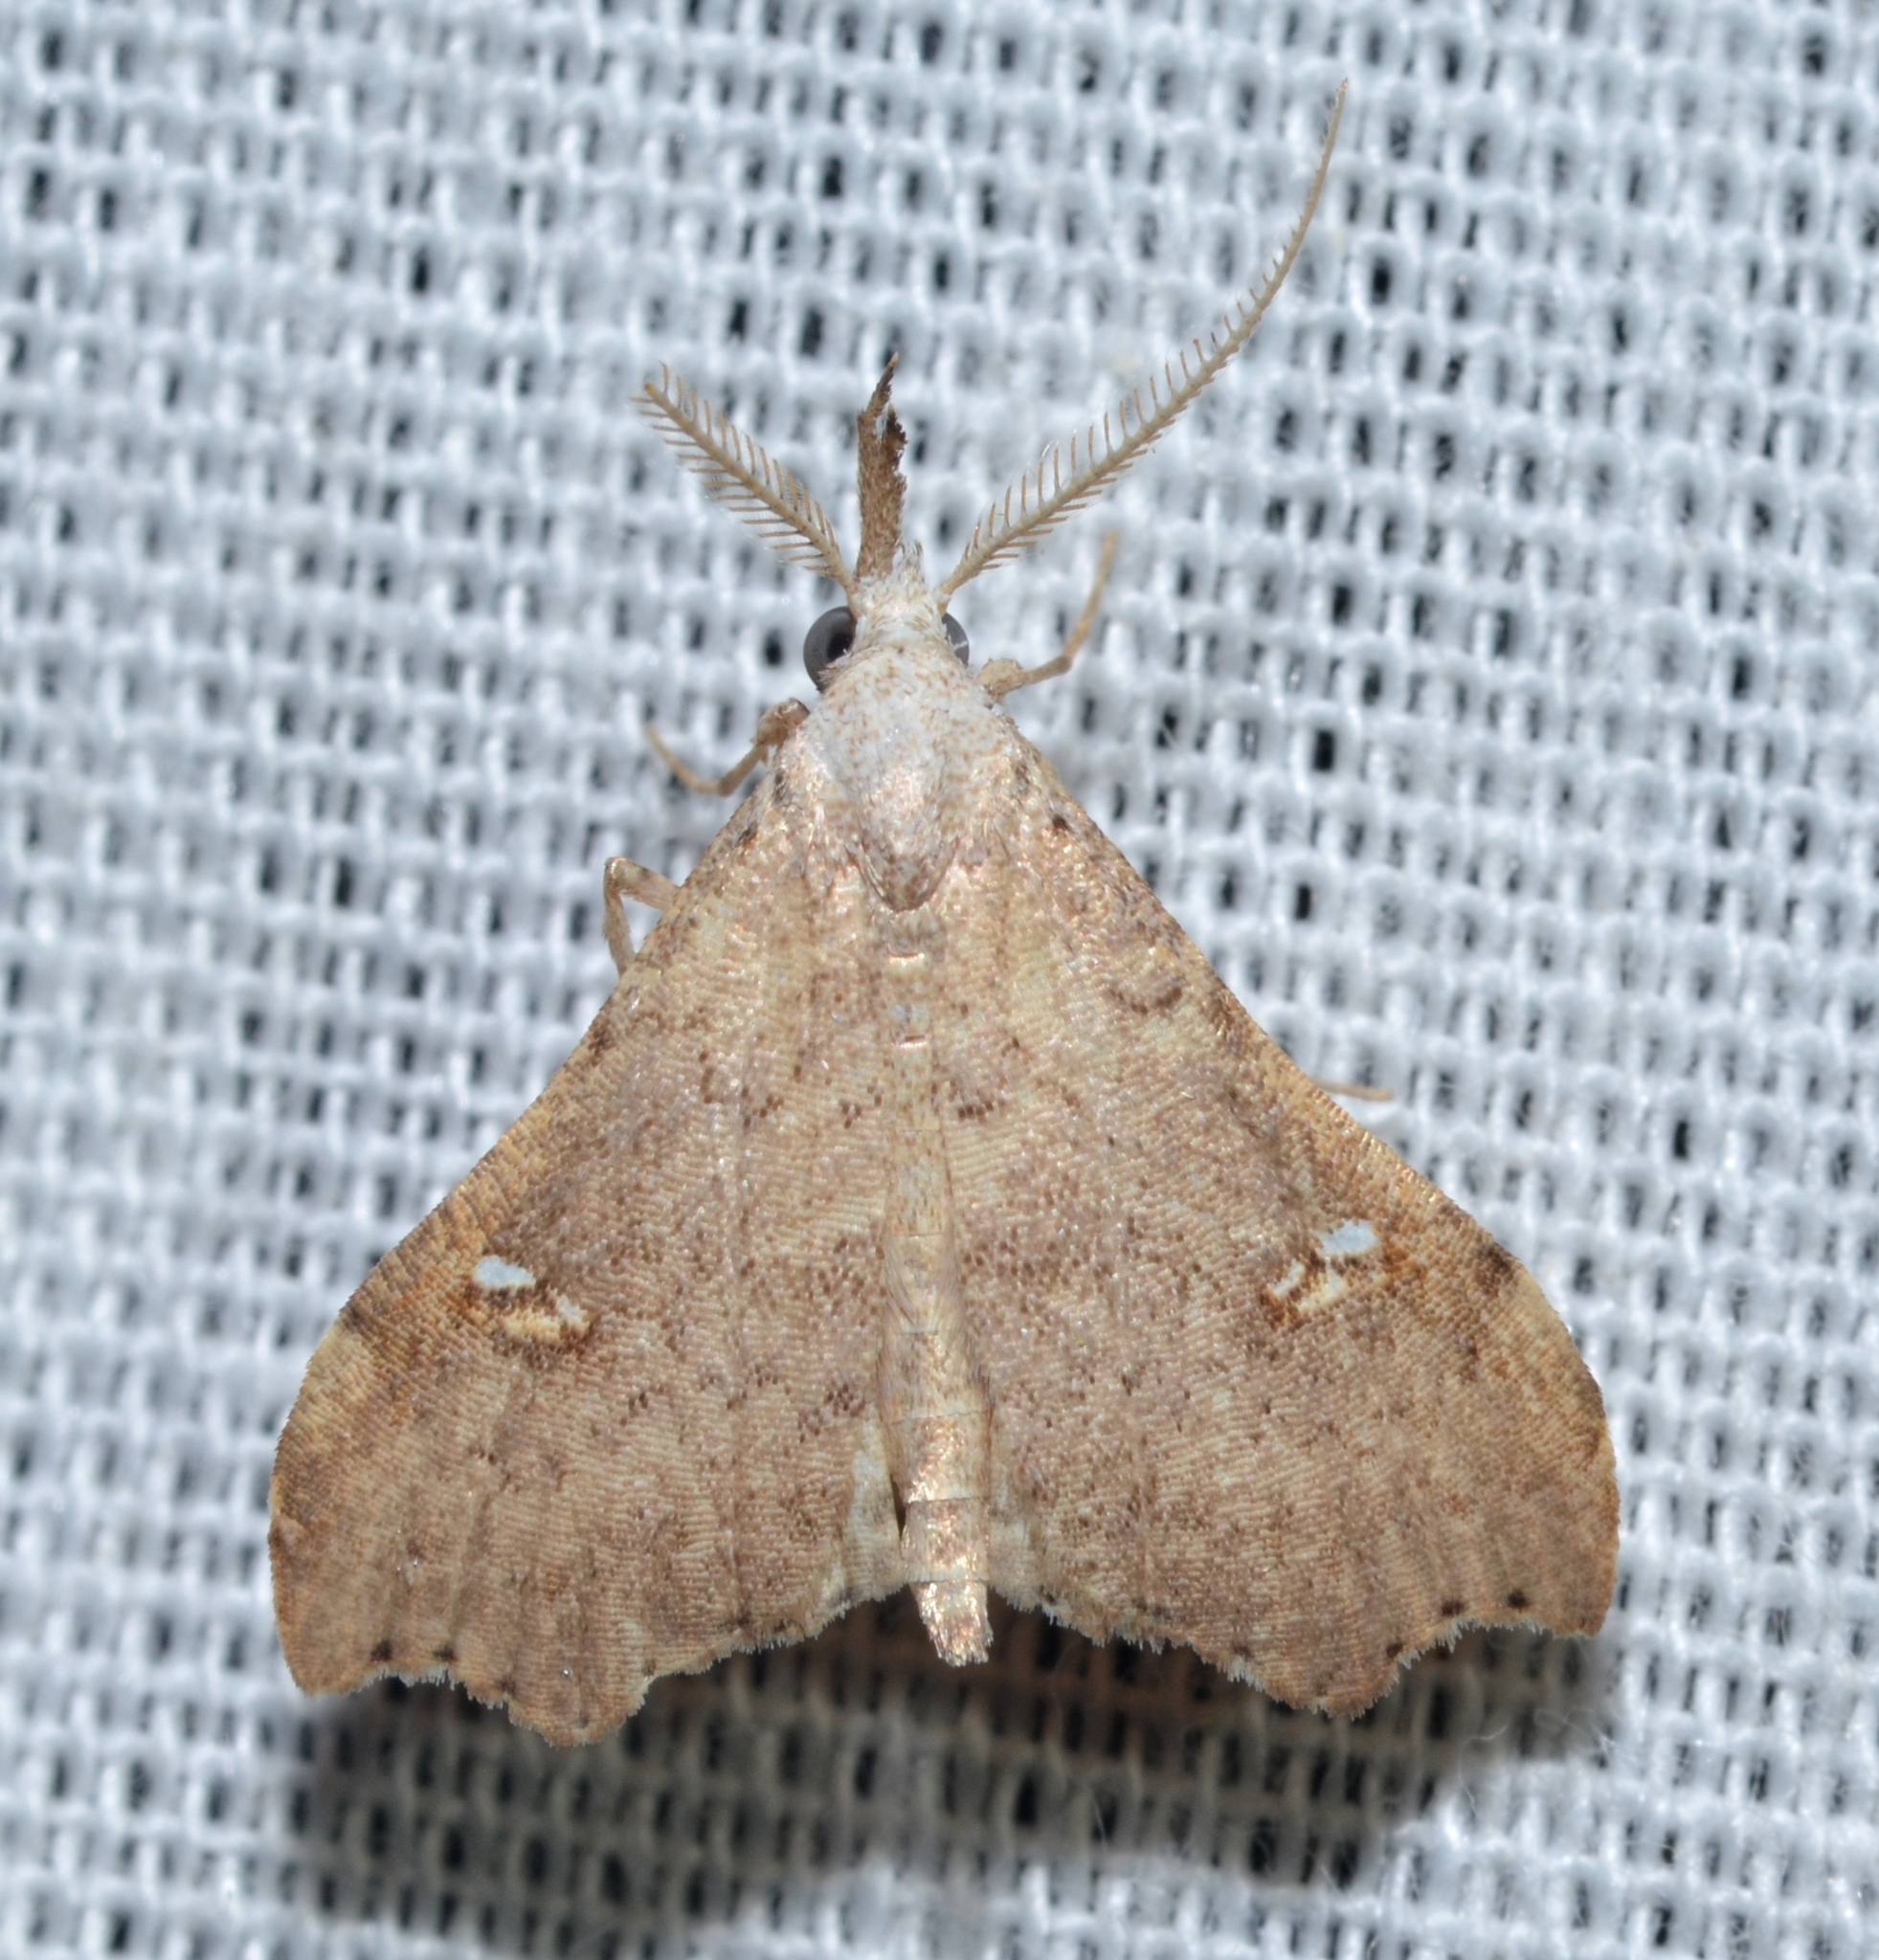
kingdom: Animalia
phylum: Arthropoda
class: Insecta
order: Lepidoptera
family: Erebidae
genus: Redectis
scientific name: Redectis vitrea
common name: White-spotted redectis
